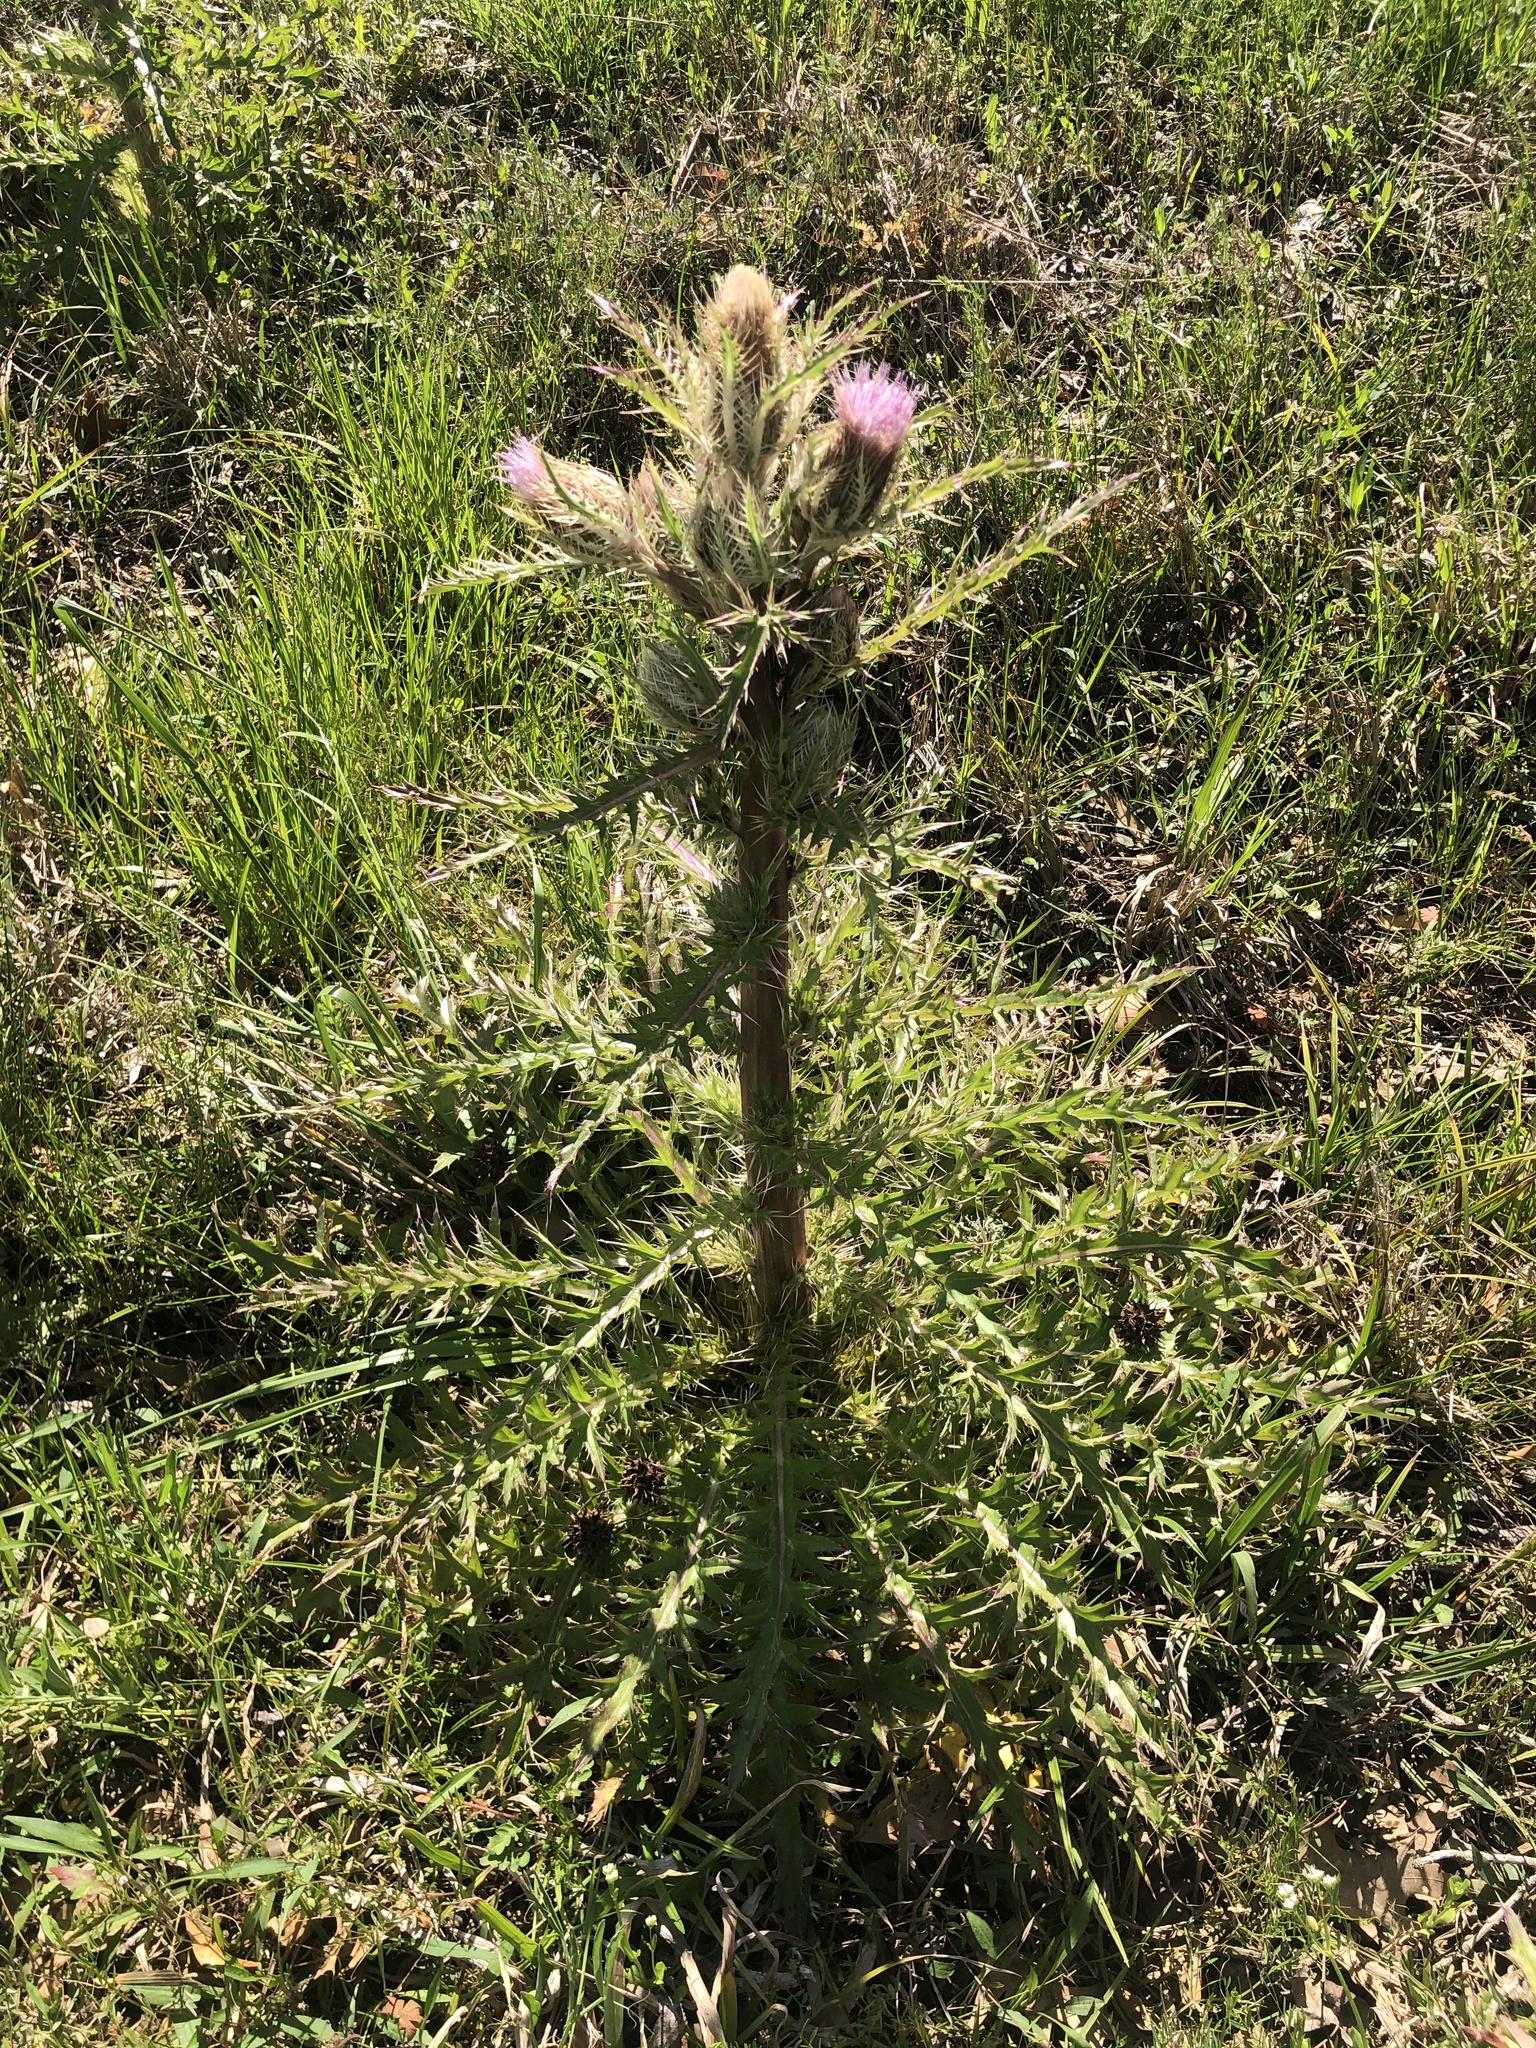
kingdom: Plantae
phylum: Tracheophyta
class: Magnoliopsida
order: Asterales
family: Asteraceae
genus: Cirsium
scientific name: Cirsium horridulum
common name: Bristly thistle
